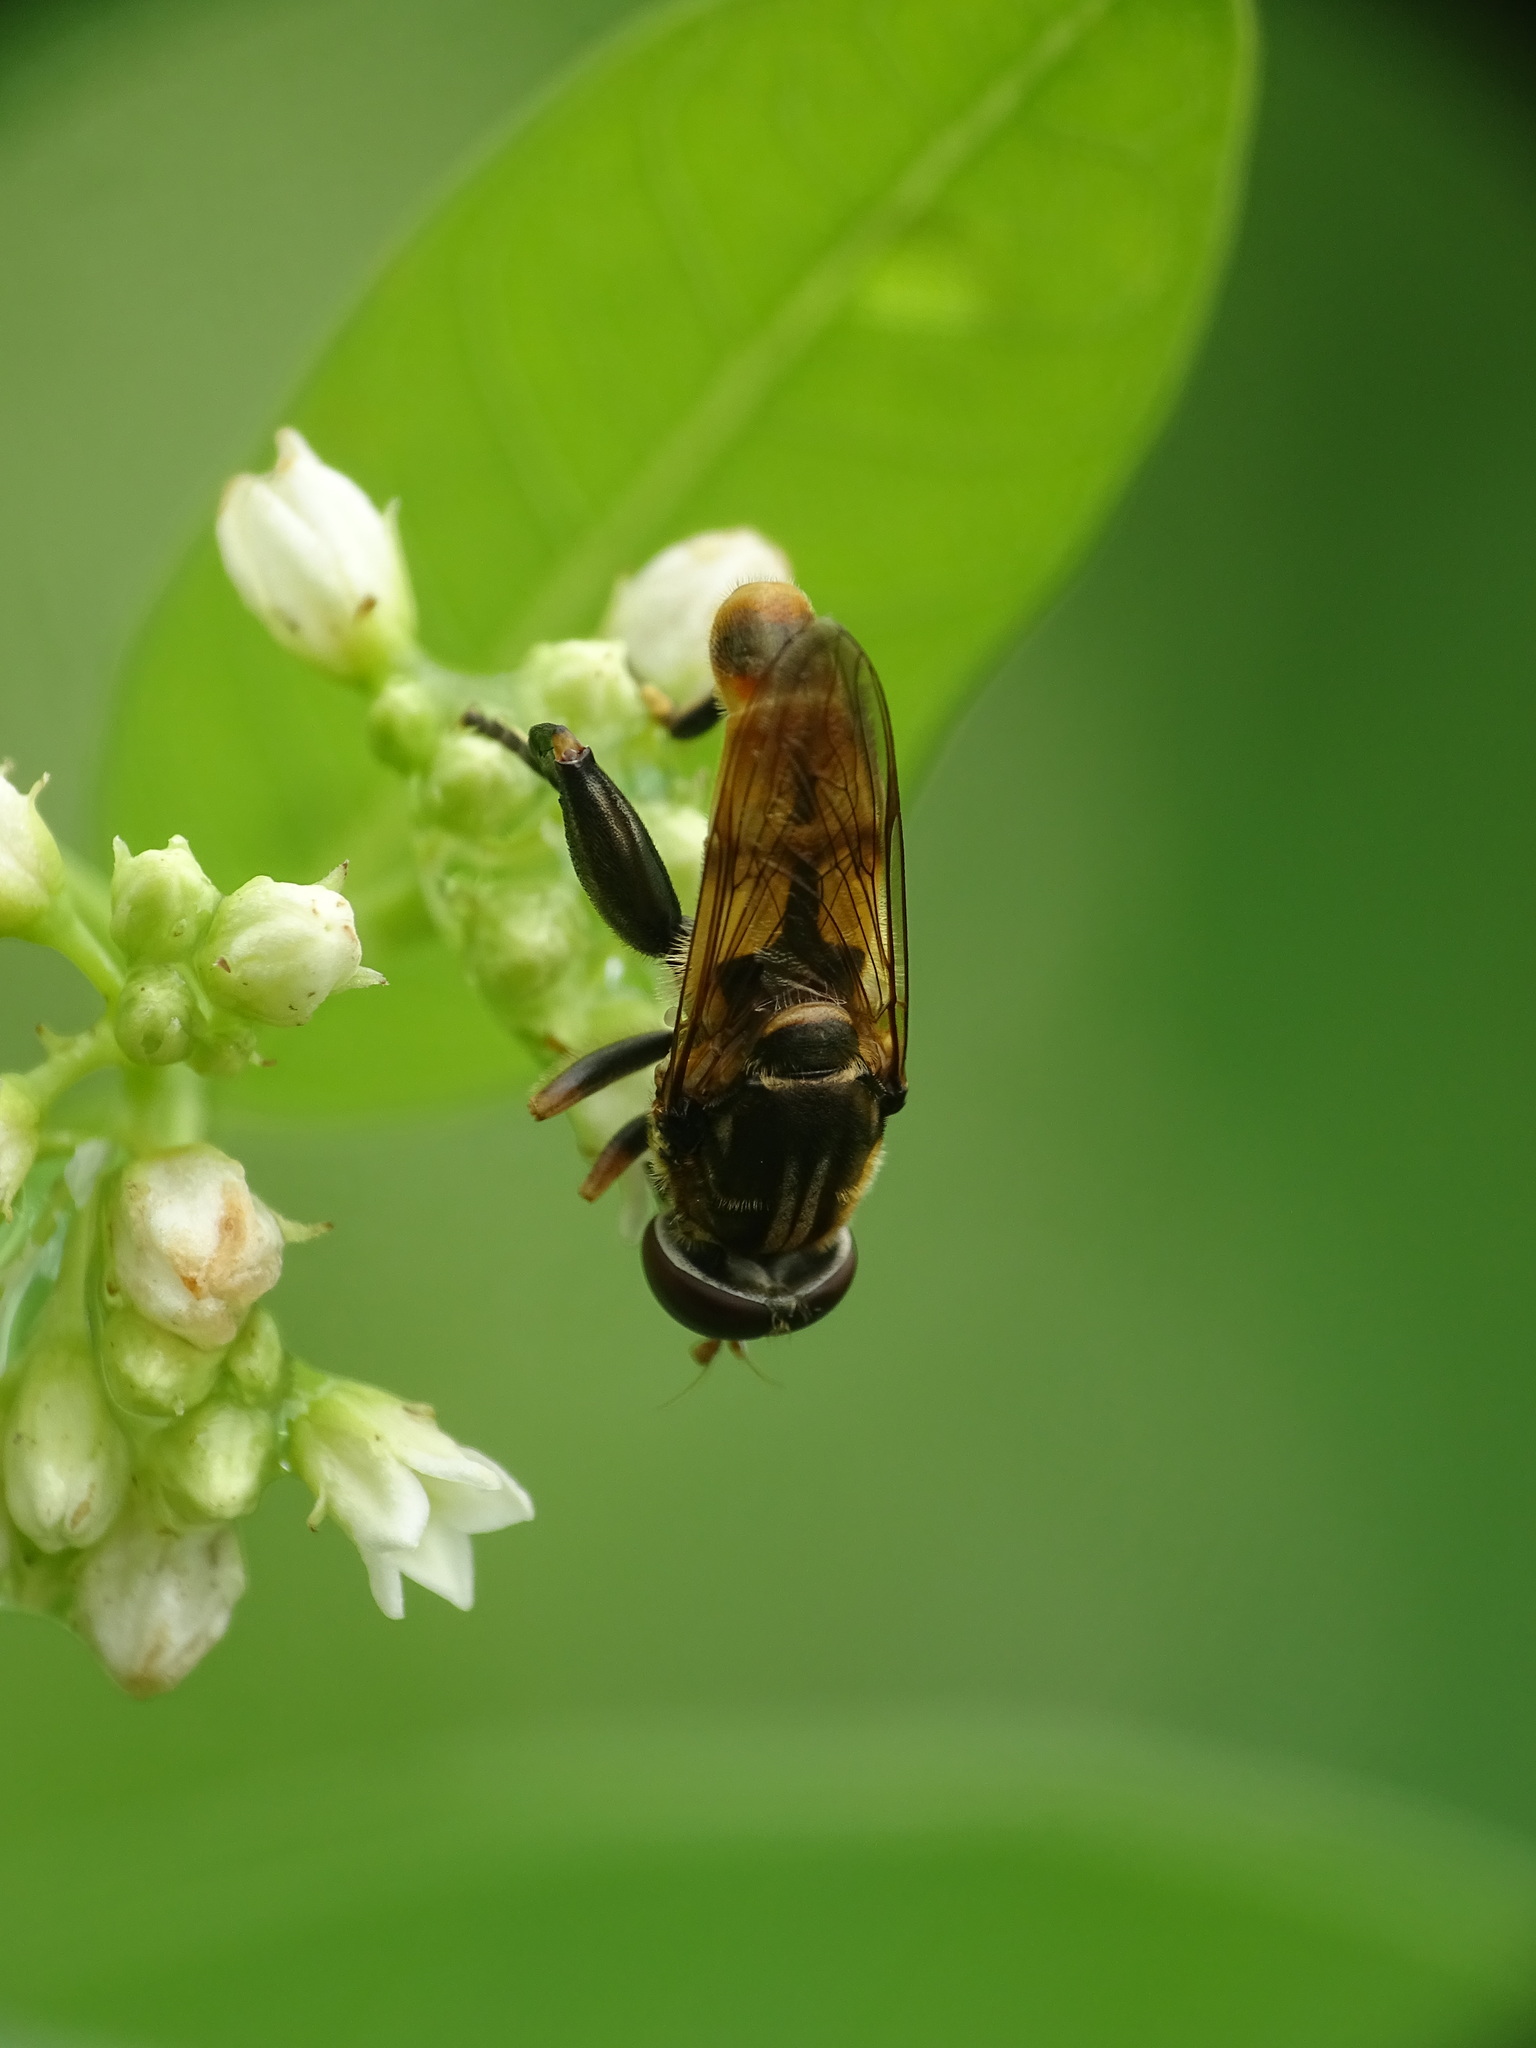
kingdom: Animalia
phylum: Arthropoda
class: Insecta
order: Diptera
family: Syrphidae
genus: Tropidia
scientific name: Tropidia quadrata
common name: Common thick-legged fly
